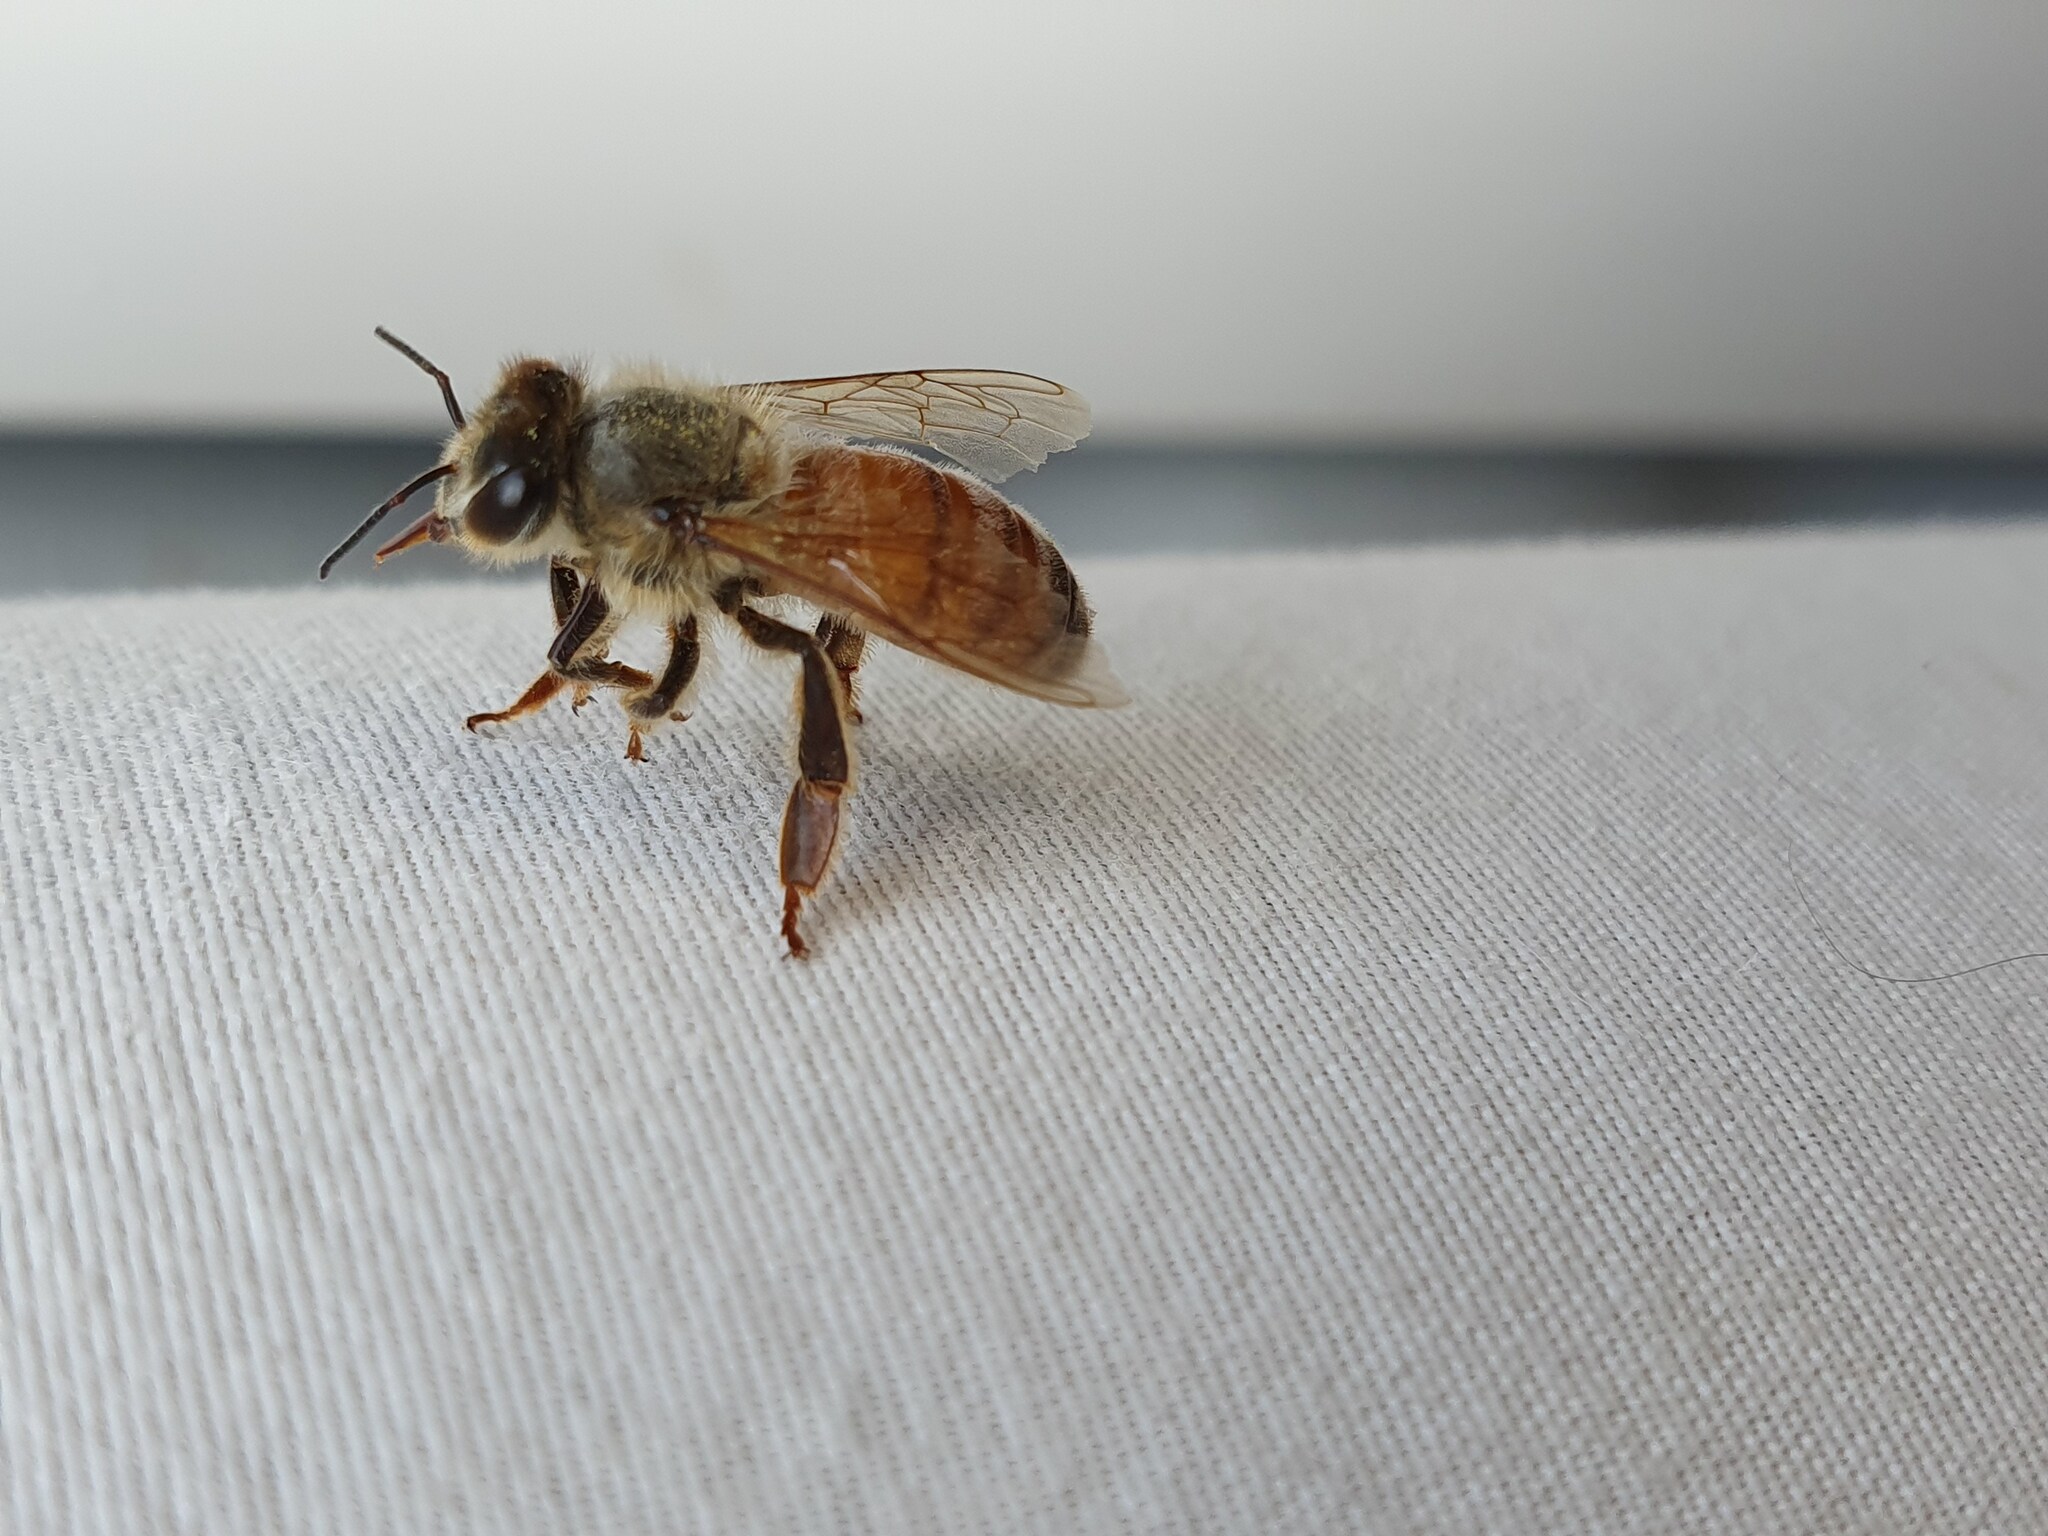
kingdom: Animalia
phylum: Arthropoda
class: Insecta
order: Hymenoptera
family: Apidae
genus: Apis
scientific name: Apis mellifera
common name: Honey bee
